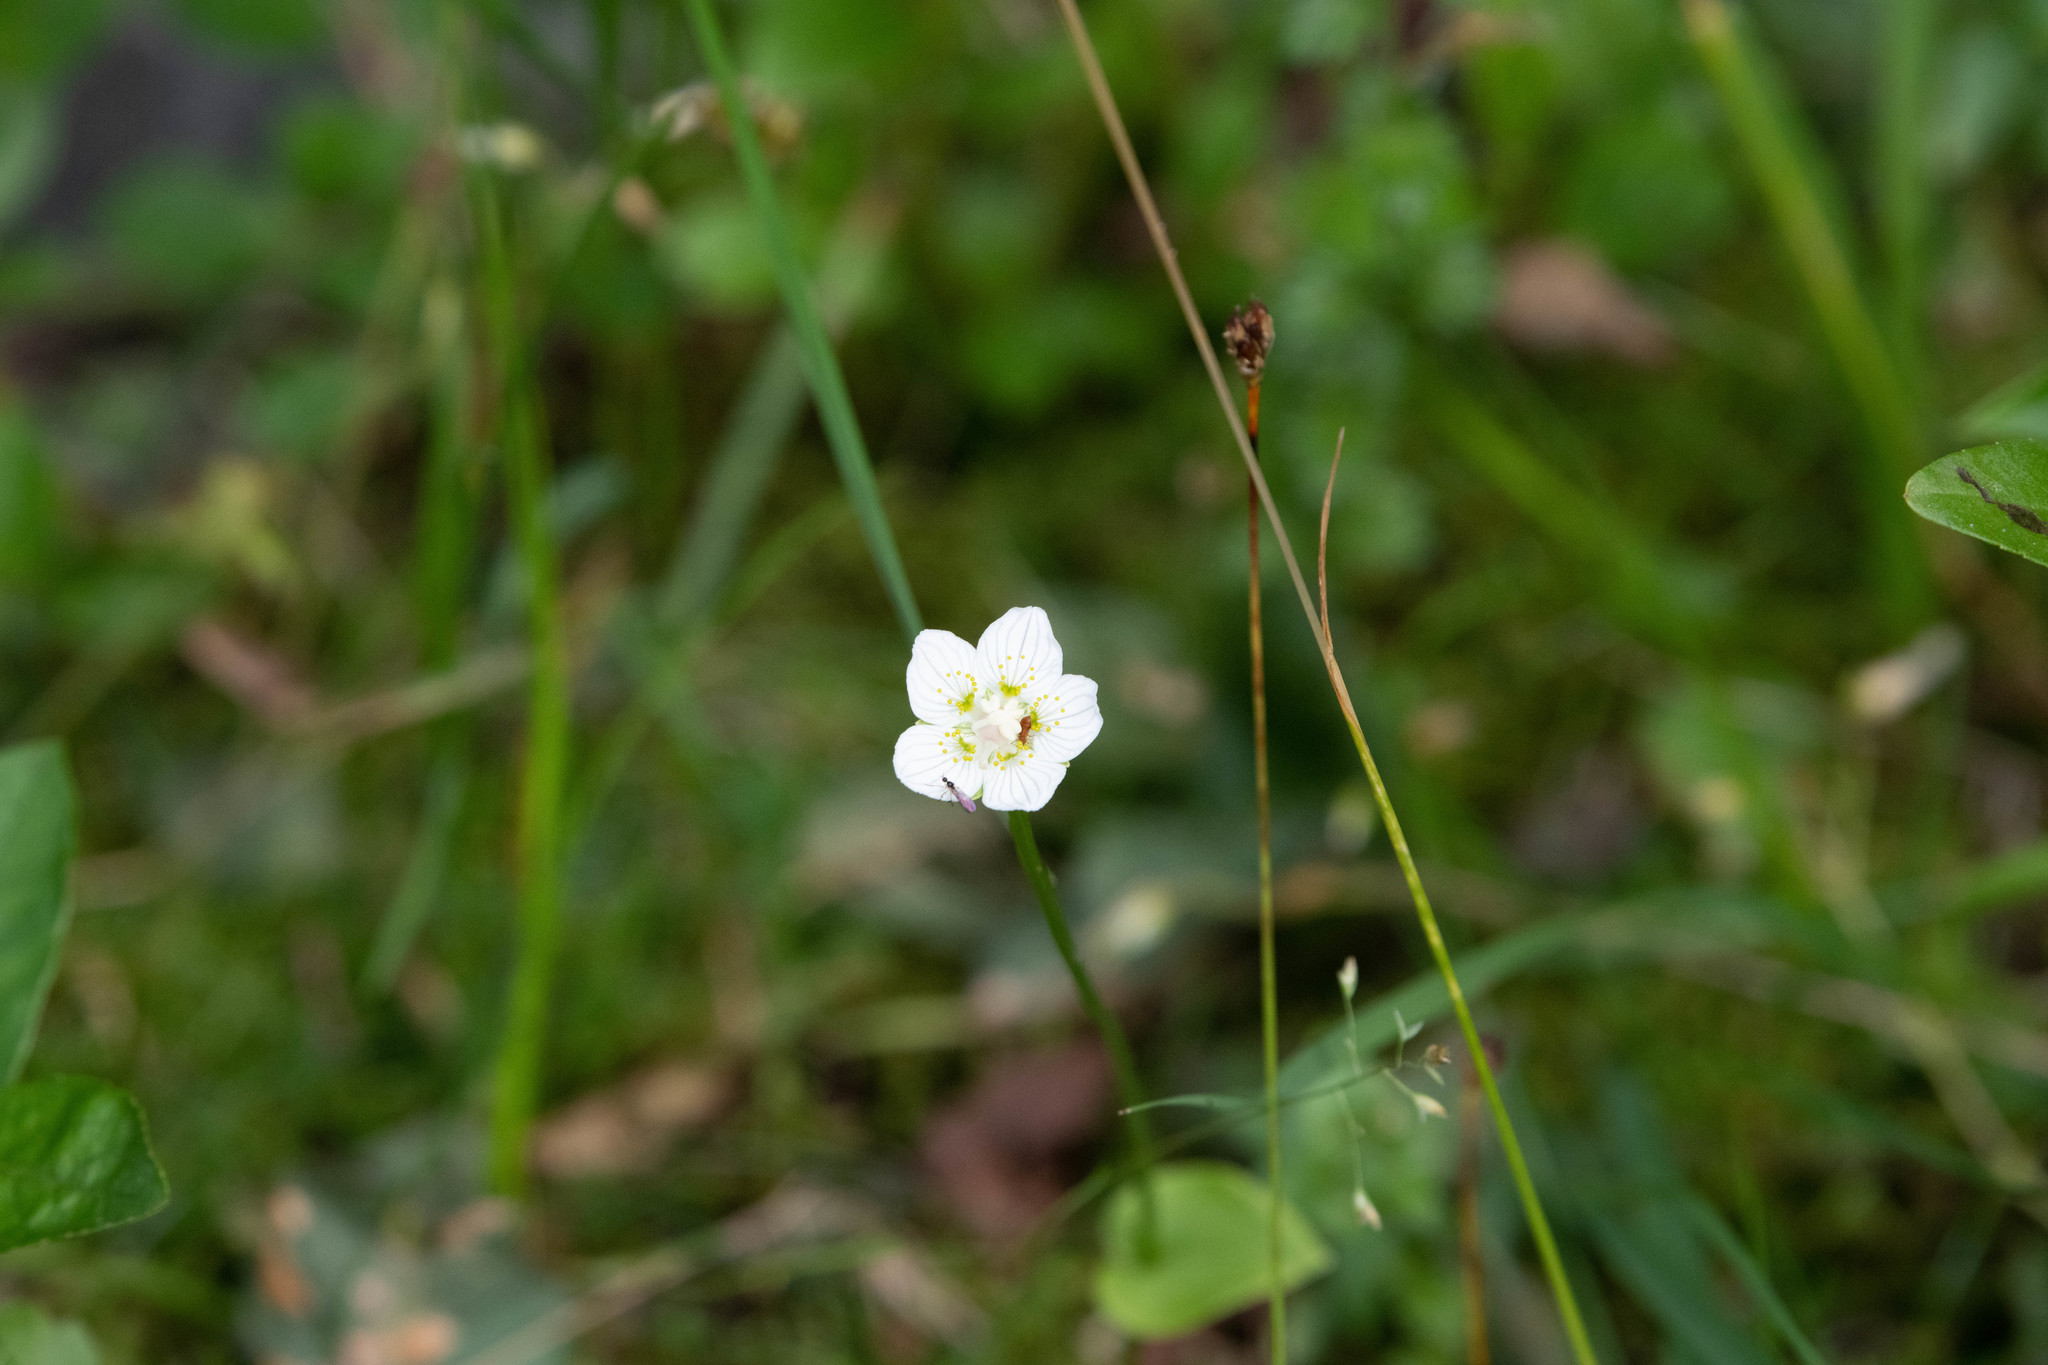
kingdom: Plantae
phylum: Tracheophyta
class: Magnoliopsida
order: Celastrales
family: Parnassiaceae
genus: Parnassia
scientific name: Parnassia palustris
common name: Grass-of-parnassus
